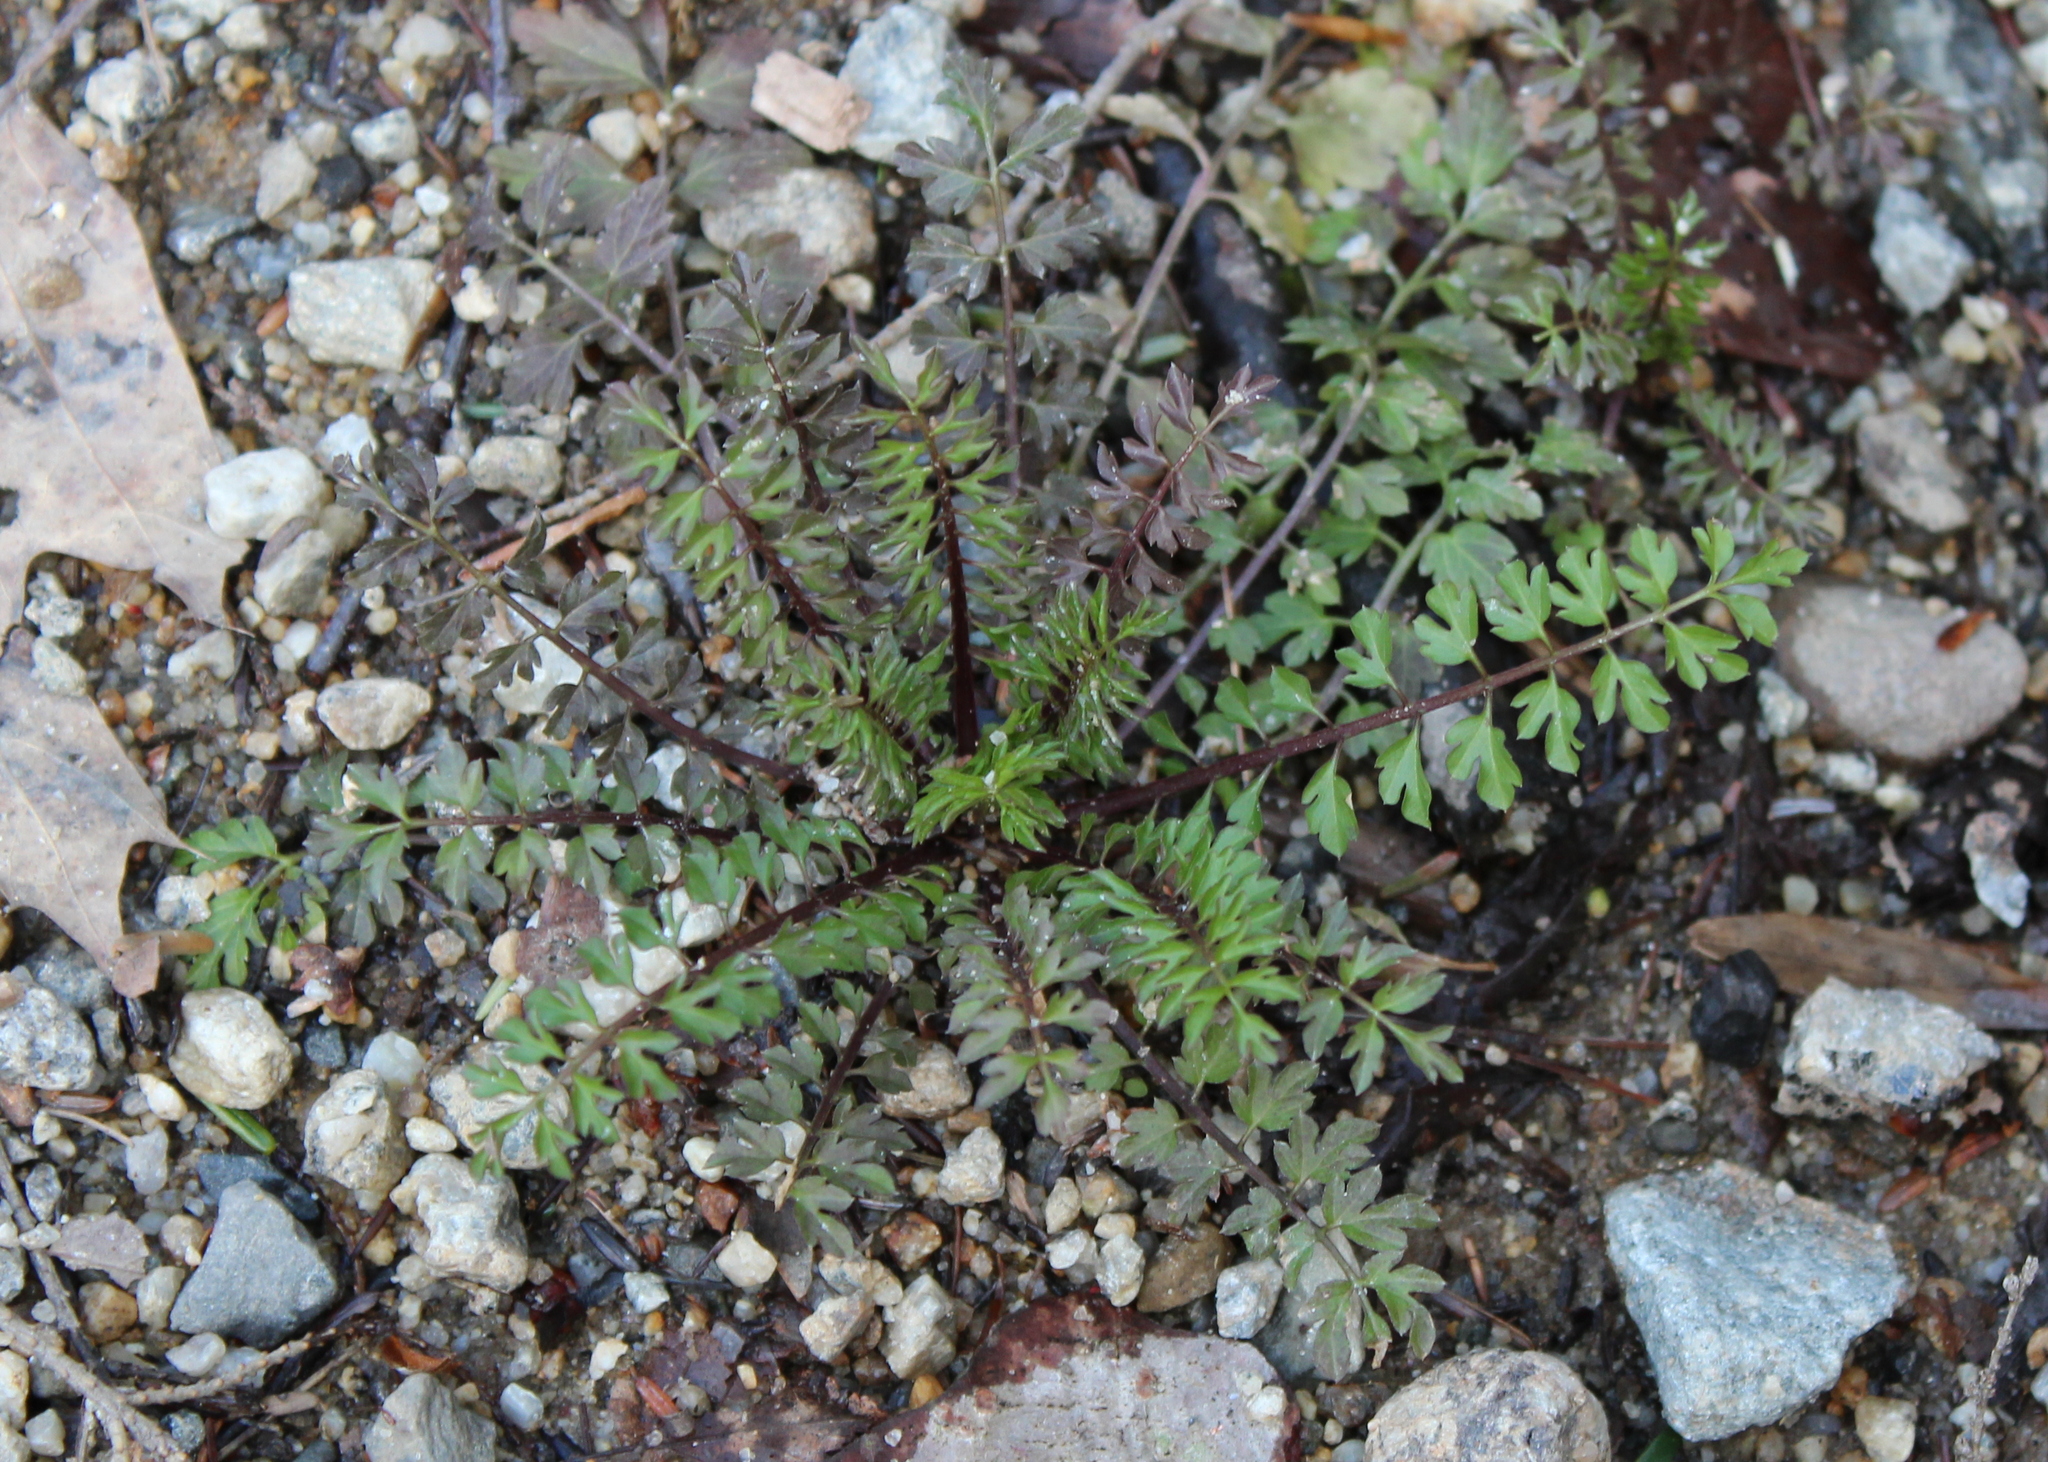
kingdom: Plantae
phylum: Tracheophyta
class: Magnoliopsida
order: Brassicales
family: Brassicaceae
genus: Cardamine
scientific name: Cardamine impatiens
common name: Narrow-leaved bitter-cress
